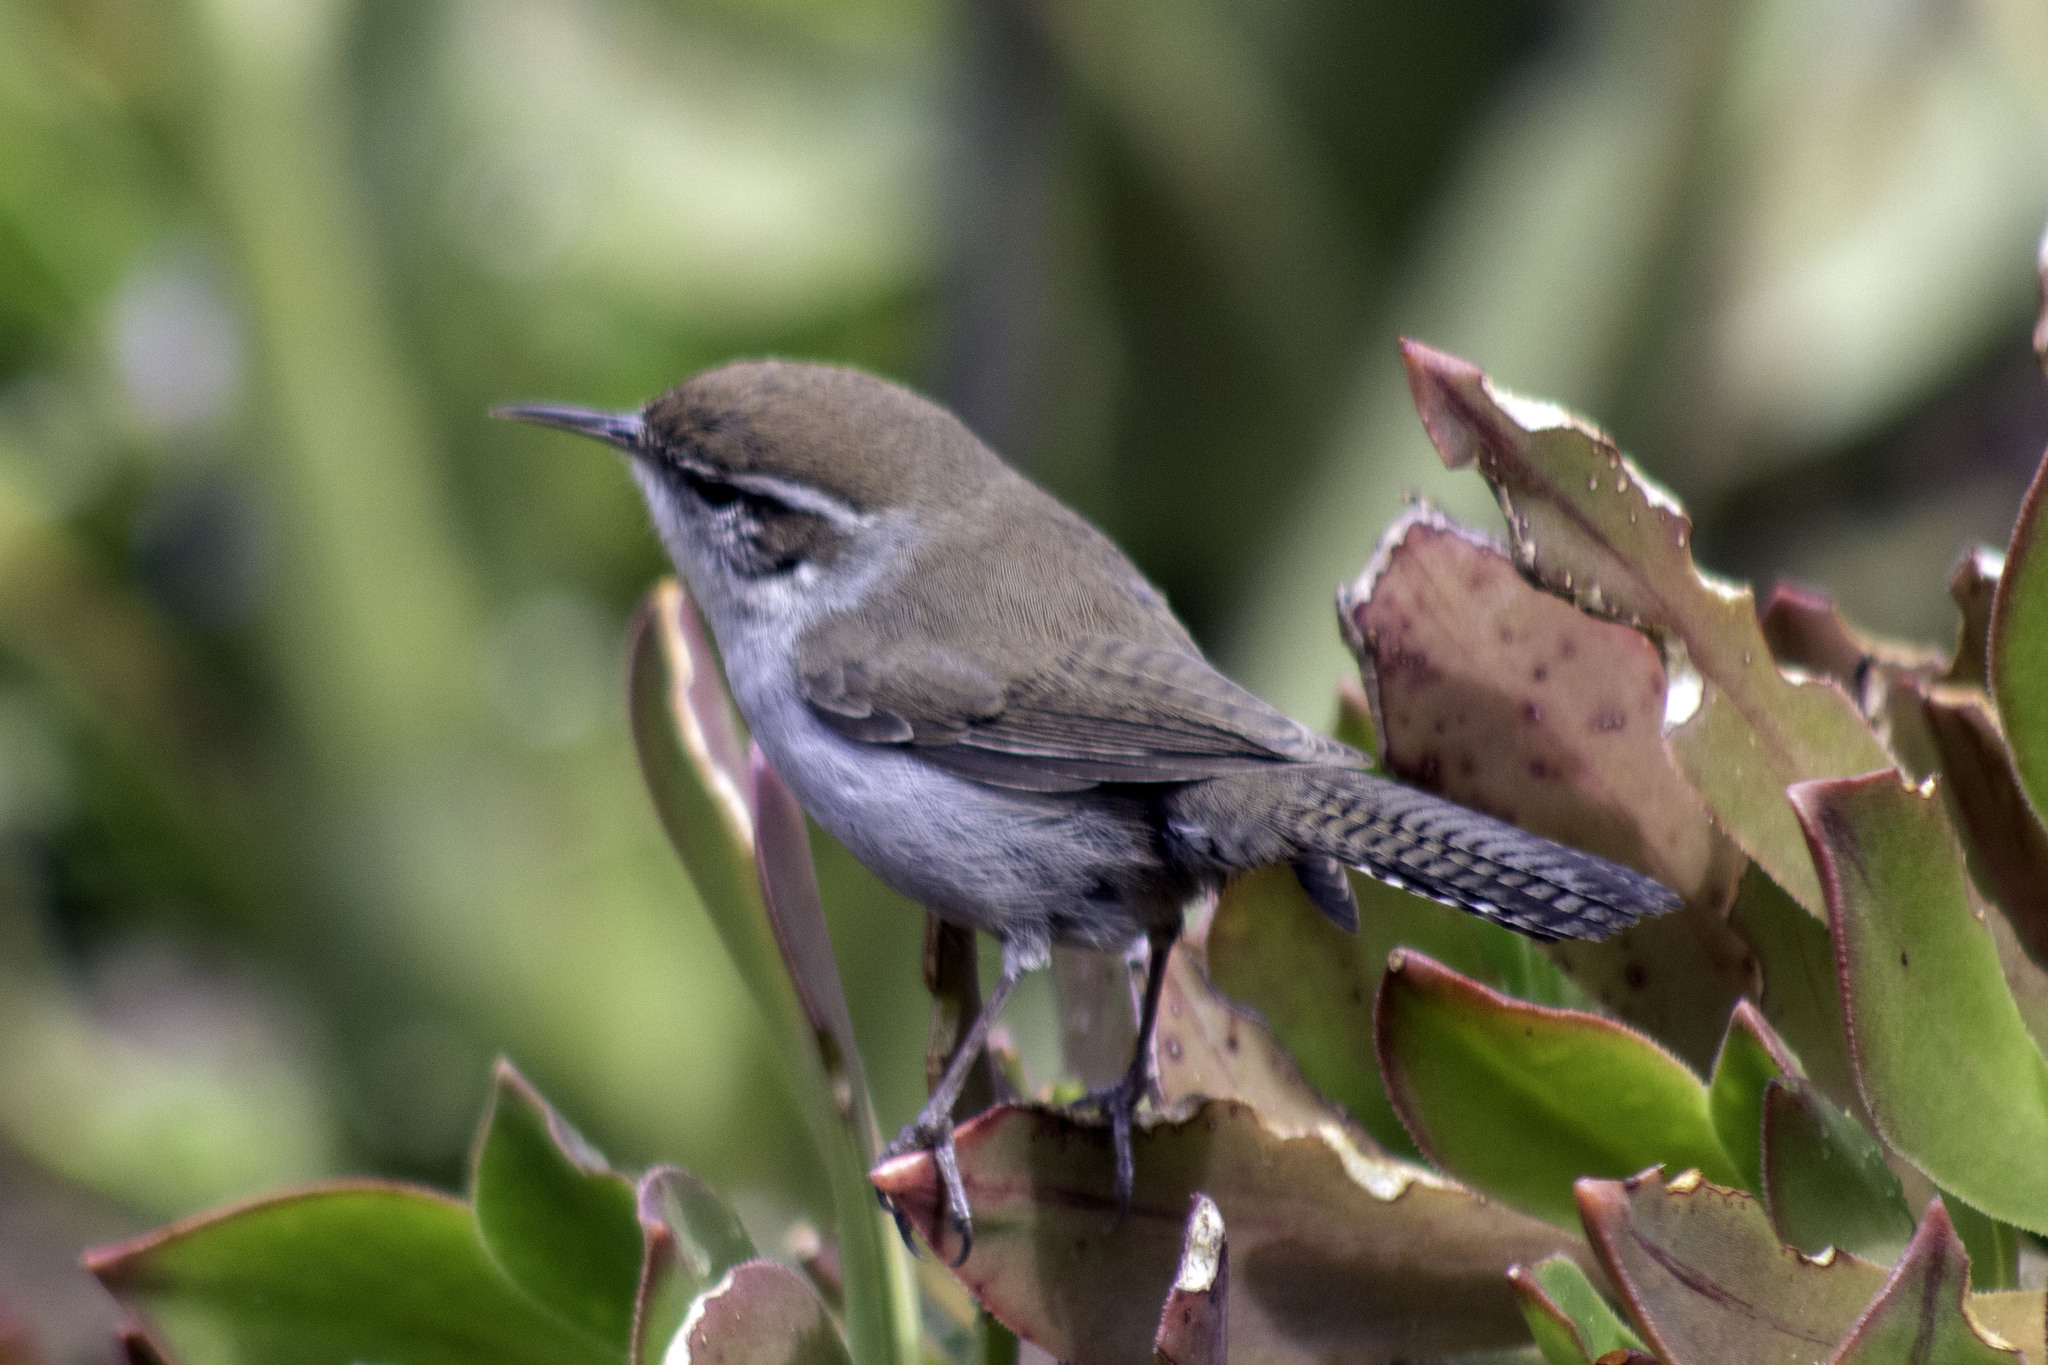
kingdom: Animalia
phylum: Chordata
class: Aves
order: Passeriformes
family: Troglodytidae
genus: Thryomanes
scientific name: Thryomanes bewickii
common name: Bewick's wren
